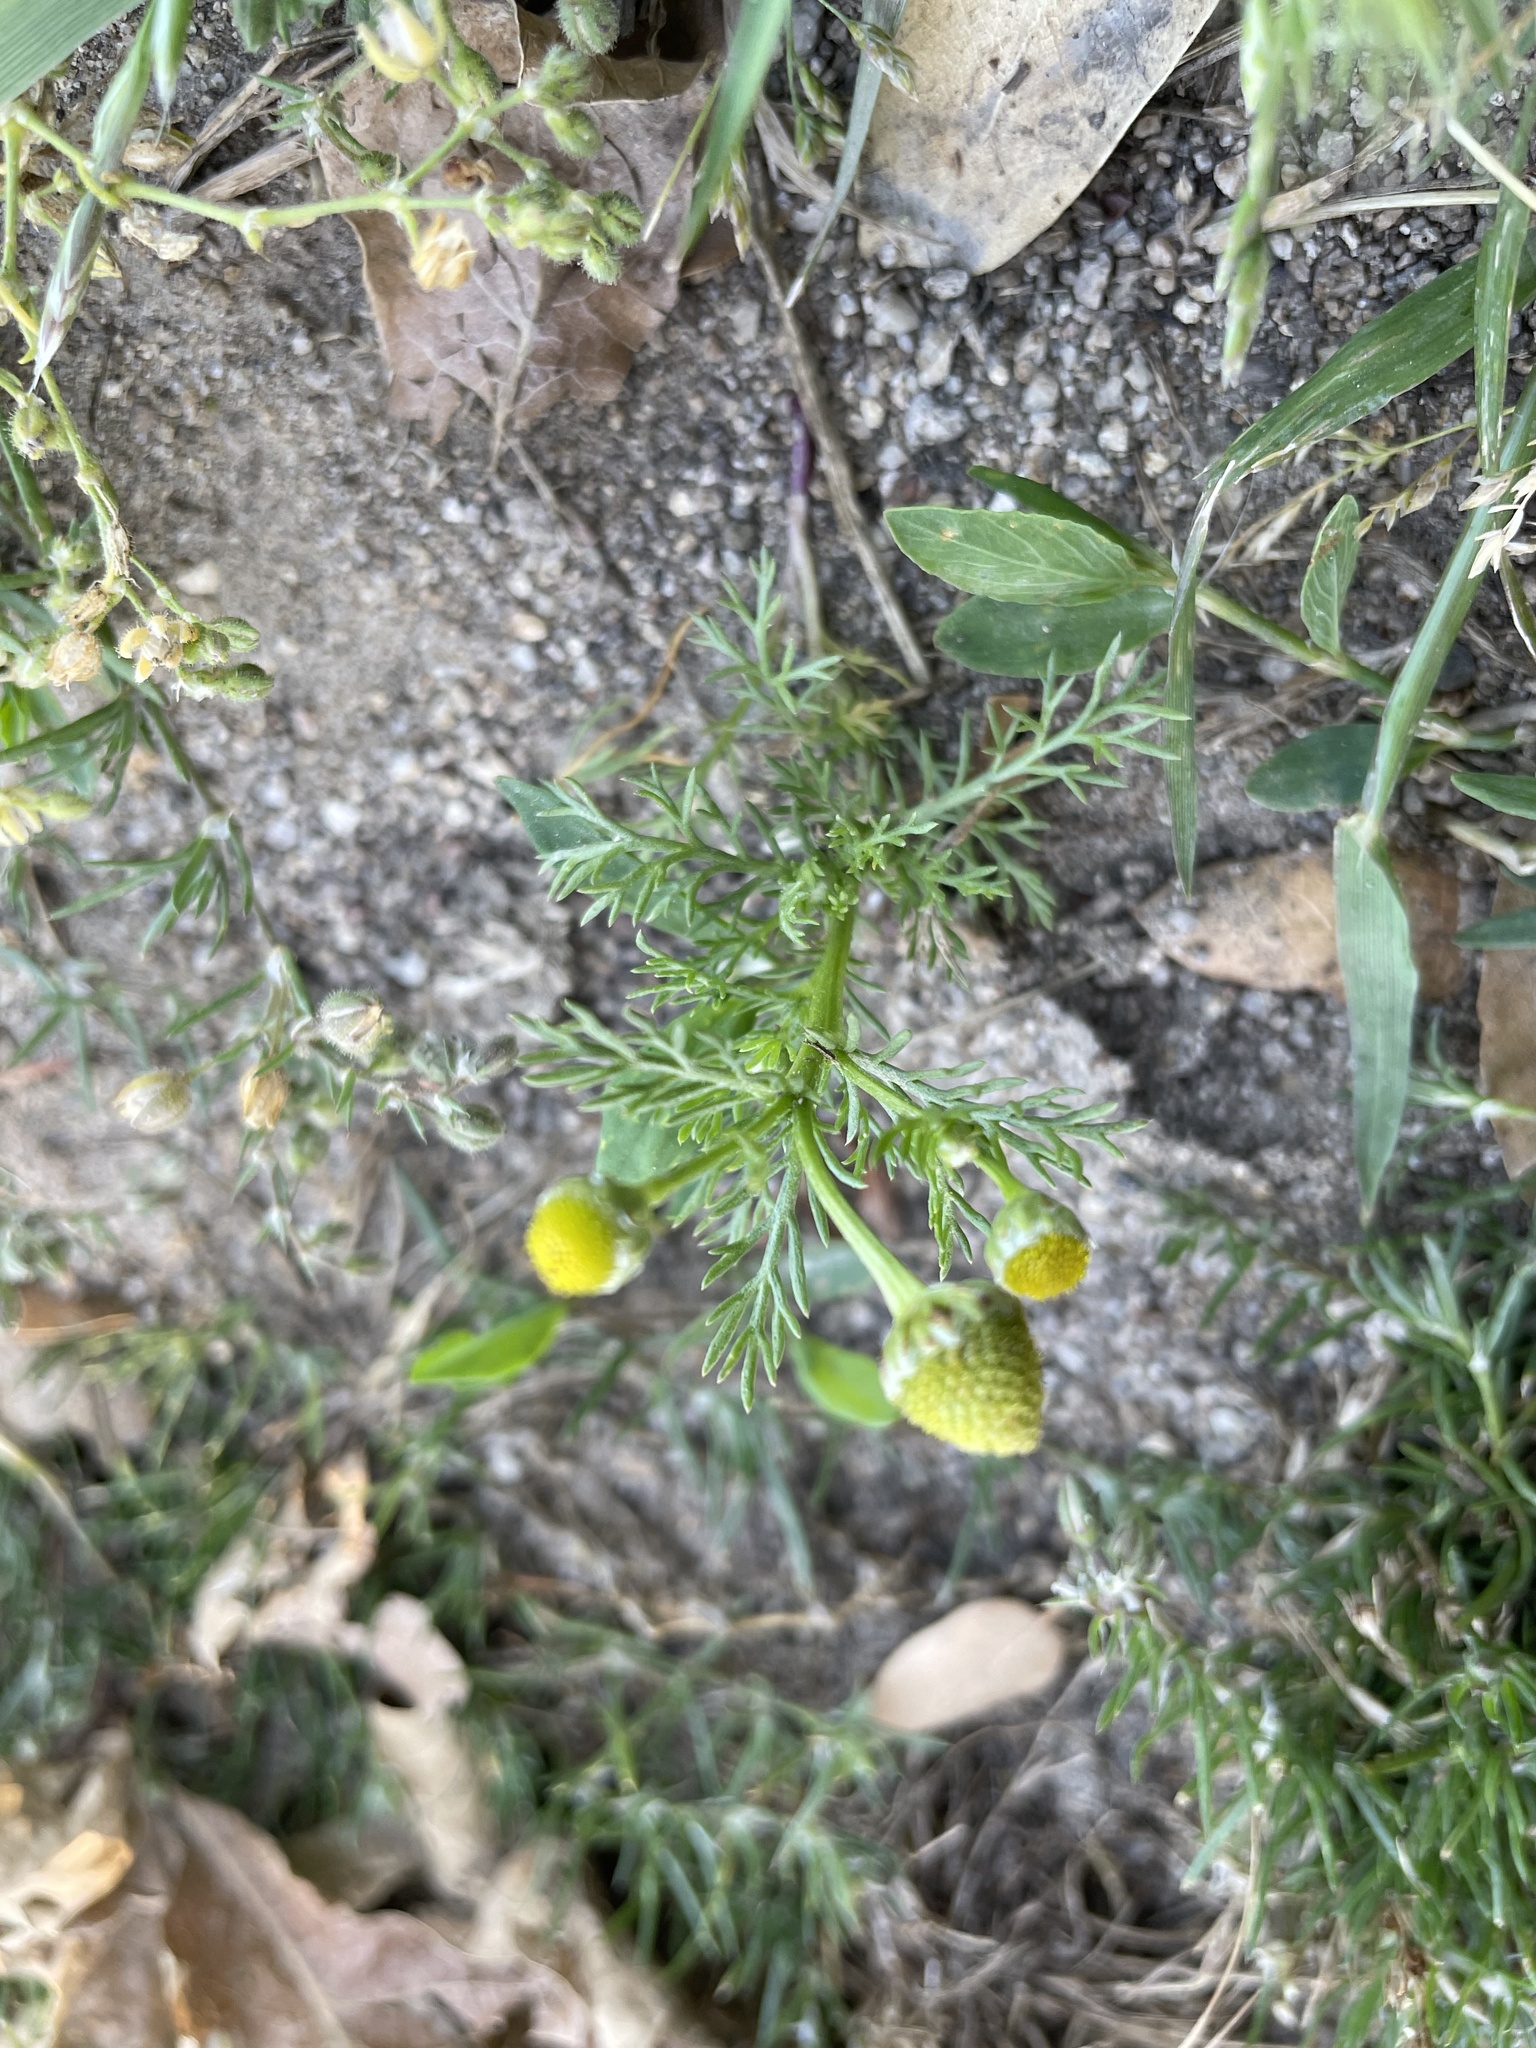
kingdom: Plantae
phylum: Tracheophyta
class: Magnoliopsida
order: Asterales
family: Asteraceae
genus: Matricaria
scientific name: Matricaria discoidea
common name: Disc mayweed
